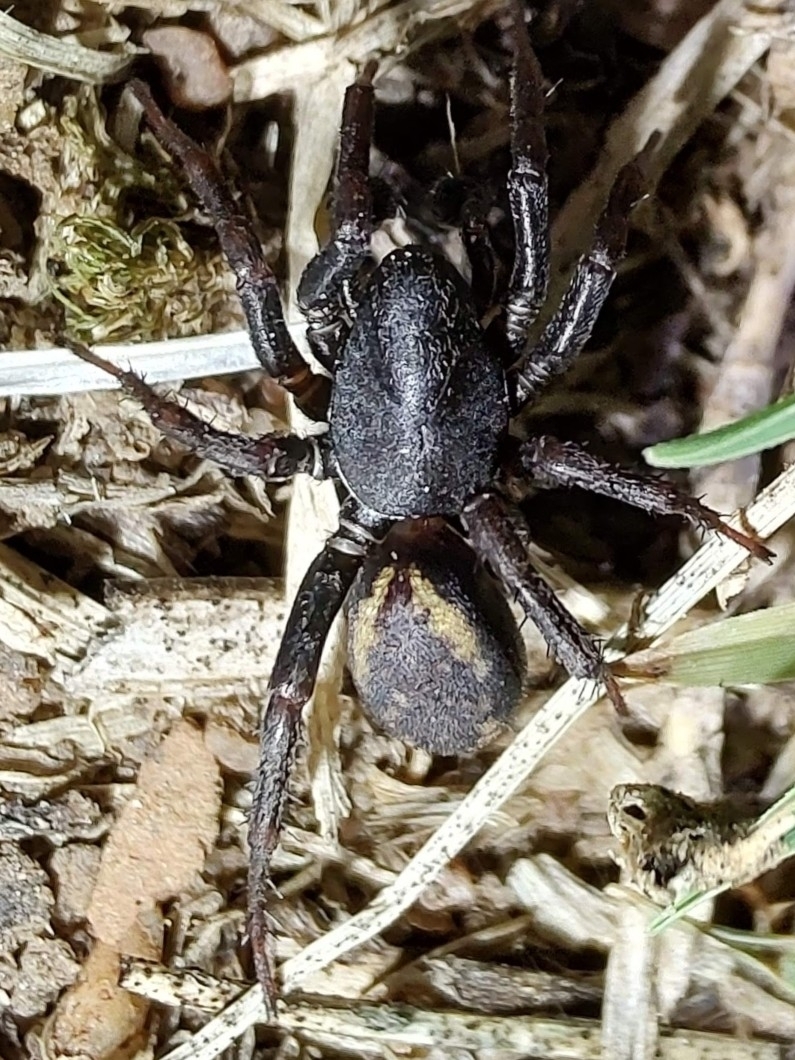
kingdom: Animalia
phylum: Arthropoda
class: Arachnida
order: Araneae
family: Zodariidae
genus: Cybaeodamus
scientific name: Cybaeodamus meridionalis
